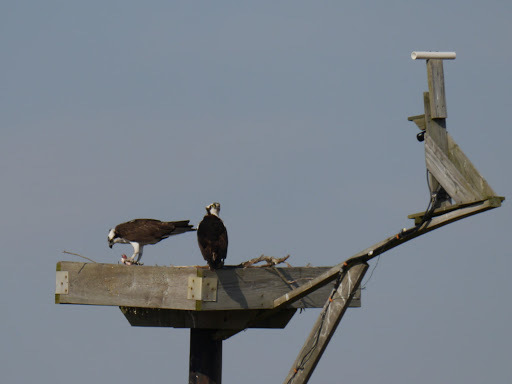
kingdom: Animalia
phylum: Chordata
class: Aves
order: Accipitriformes
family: Pandionidae
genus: Pandion
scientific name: Pandion haliaetus
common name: Osprey
